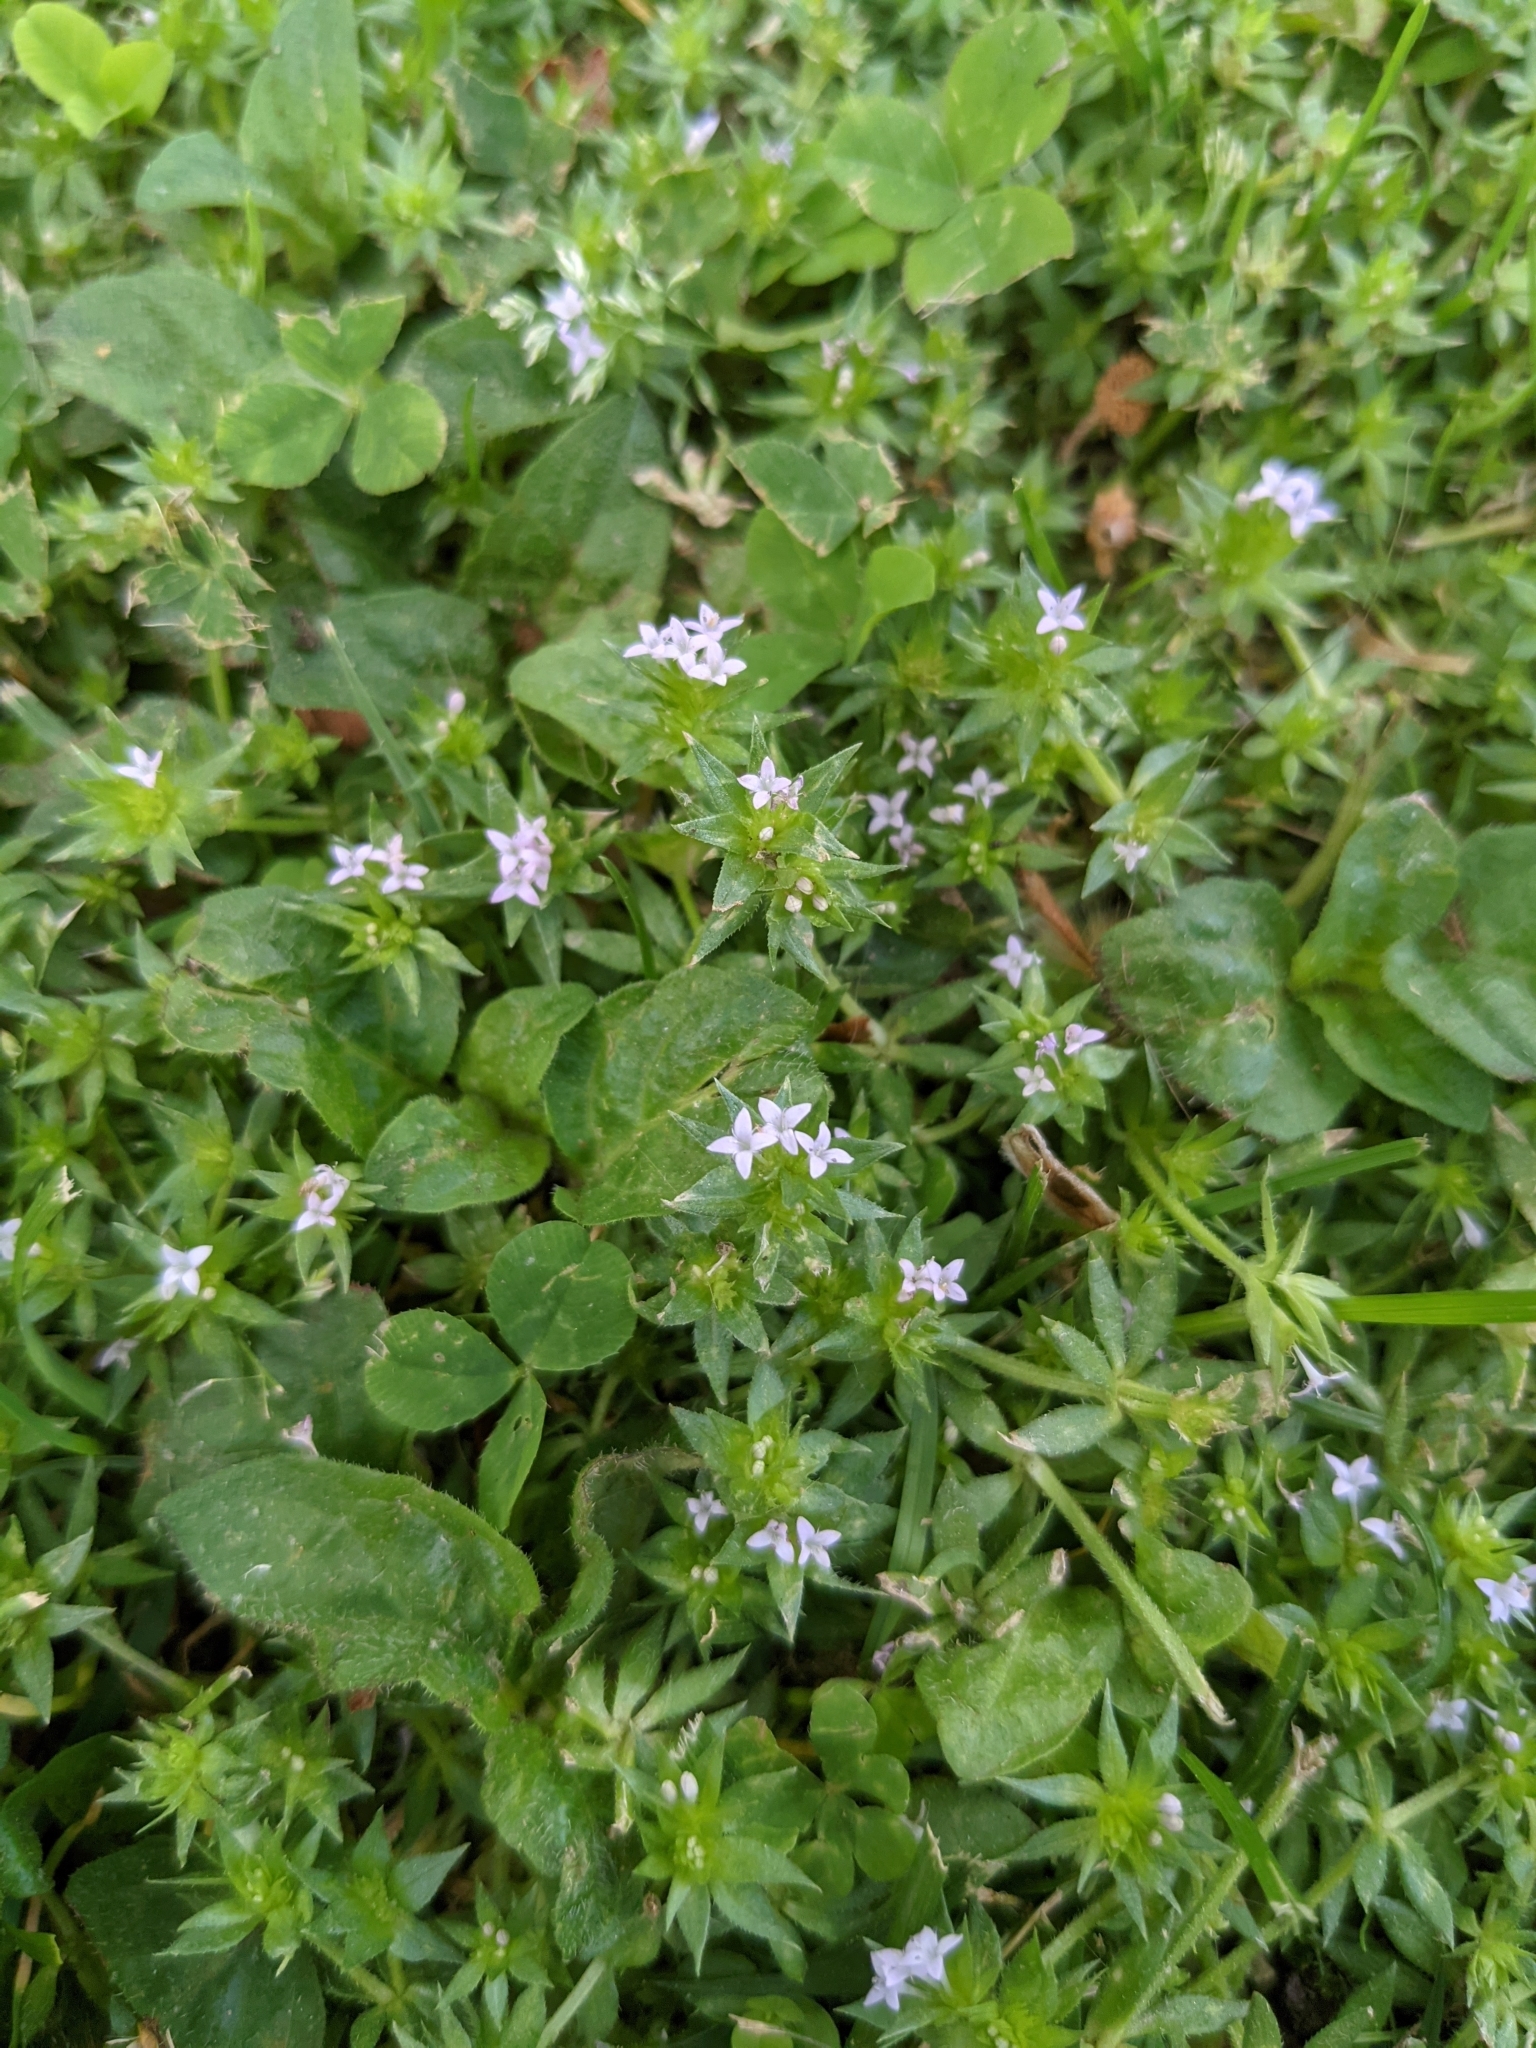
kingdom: Plantae
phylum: Tracheophyta
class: Magnoliopsida
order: Gentianales
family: Rubiaceae
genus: Sherardia
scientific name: Sherardia arvensis
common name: Field madder
